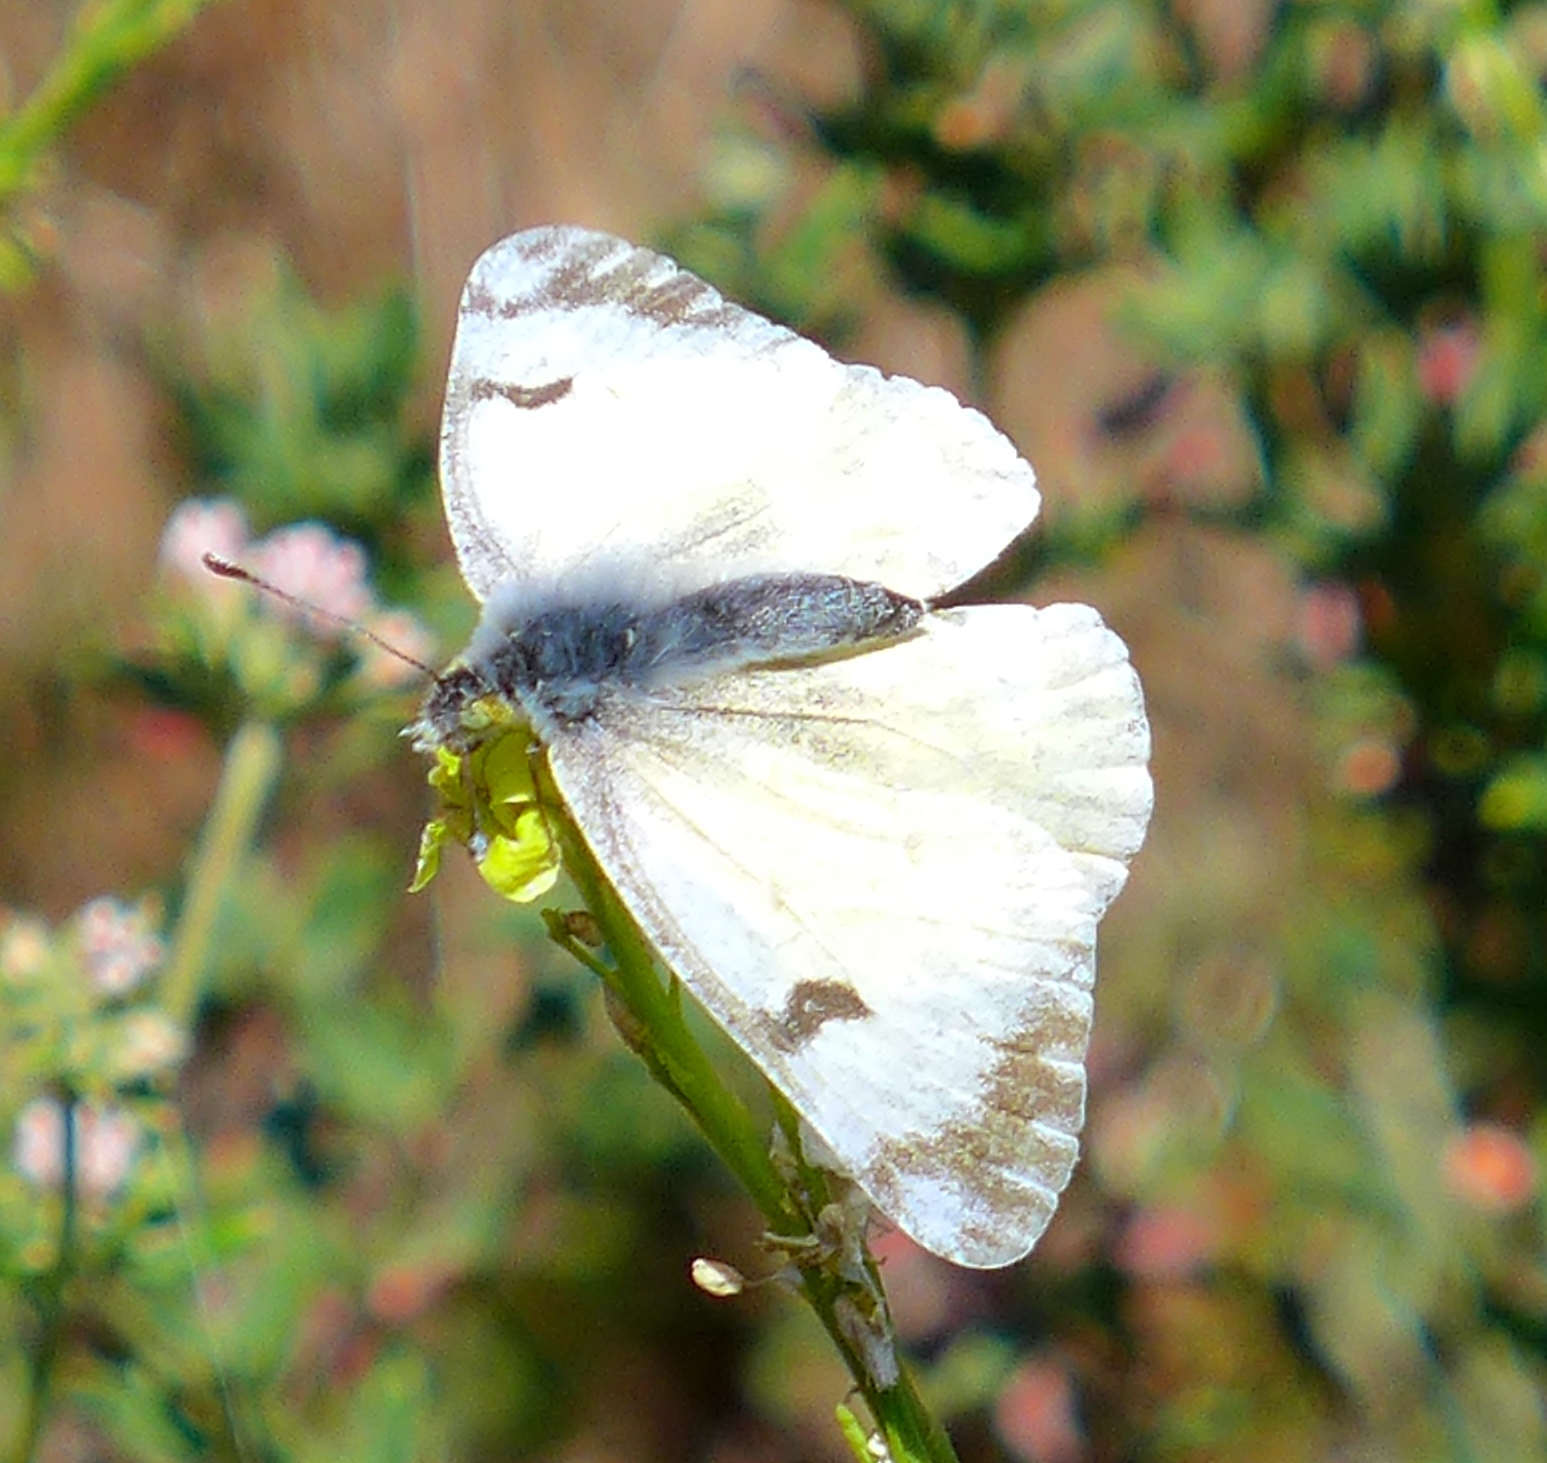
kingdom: Animalia
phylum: Arthropoda
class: Insecta
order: Lepidoptera
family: Pieridae
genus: Euchloe
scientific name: Euchloe ausonides
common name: Creamy marblewing
